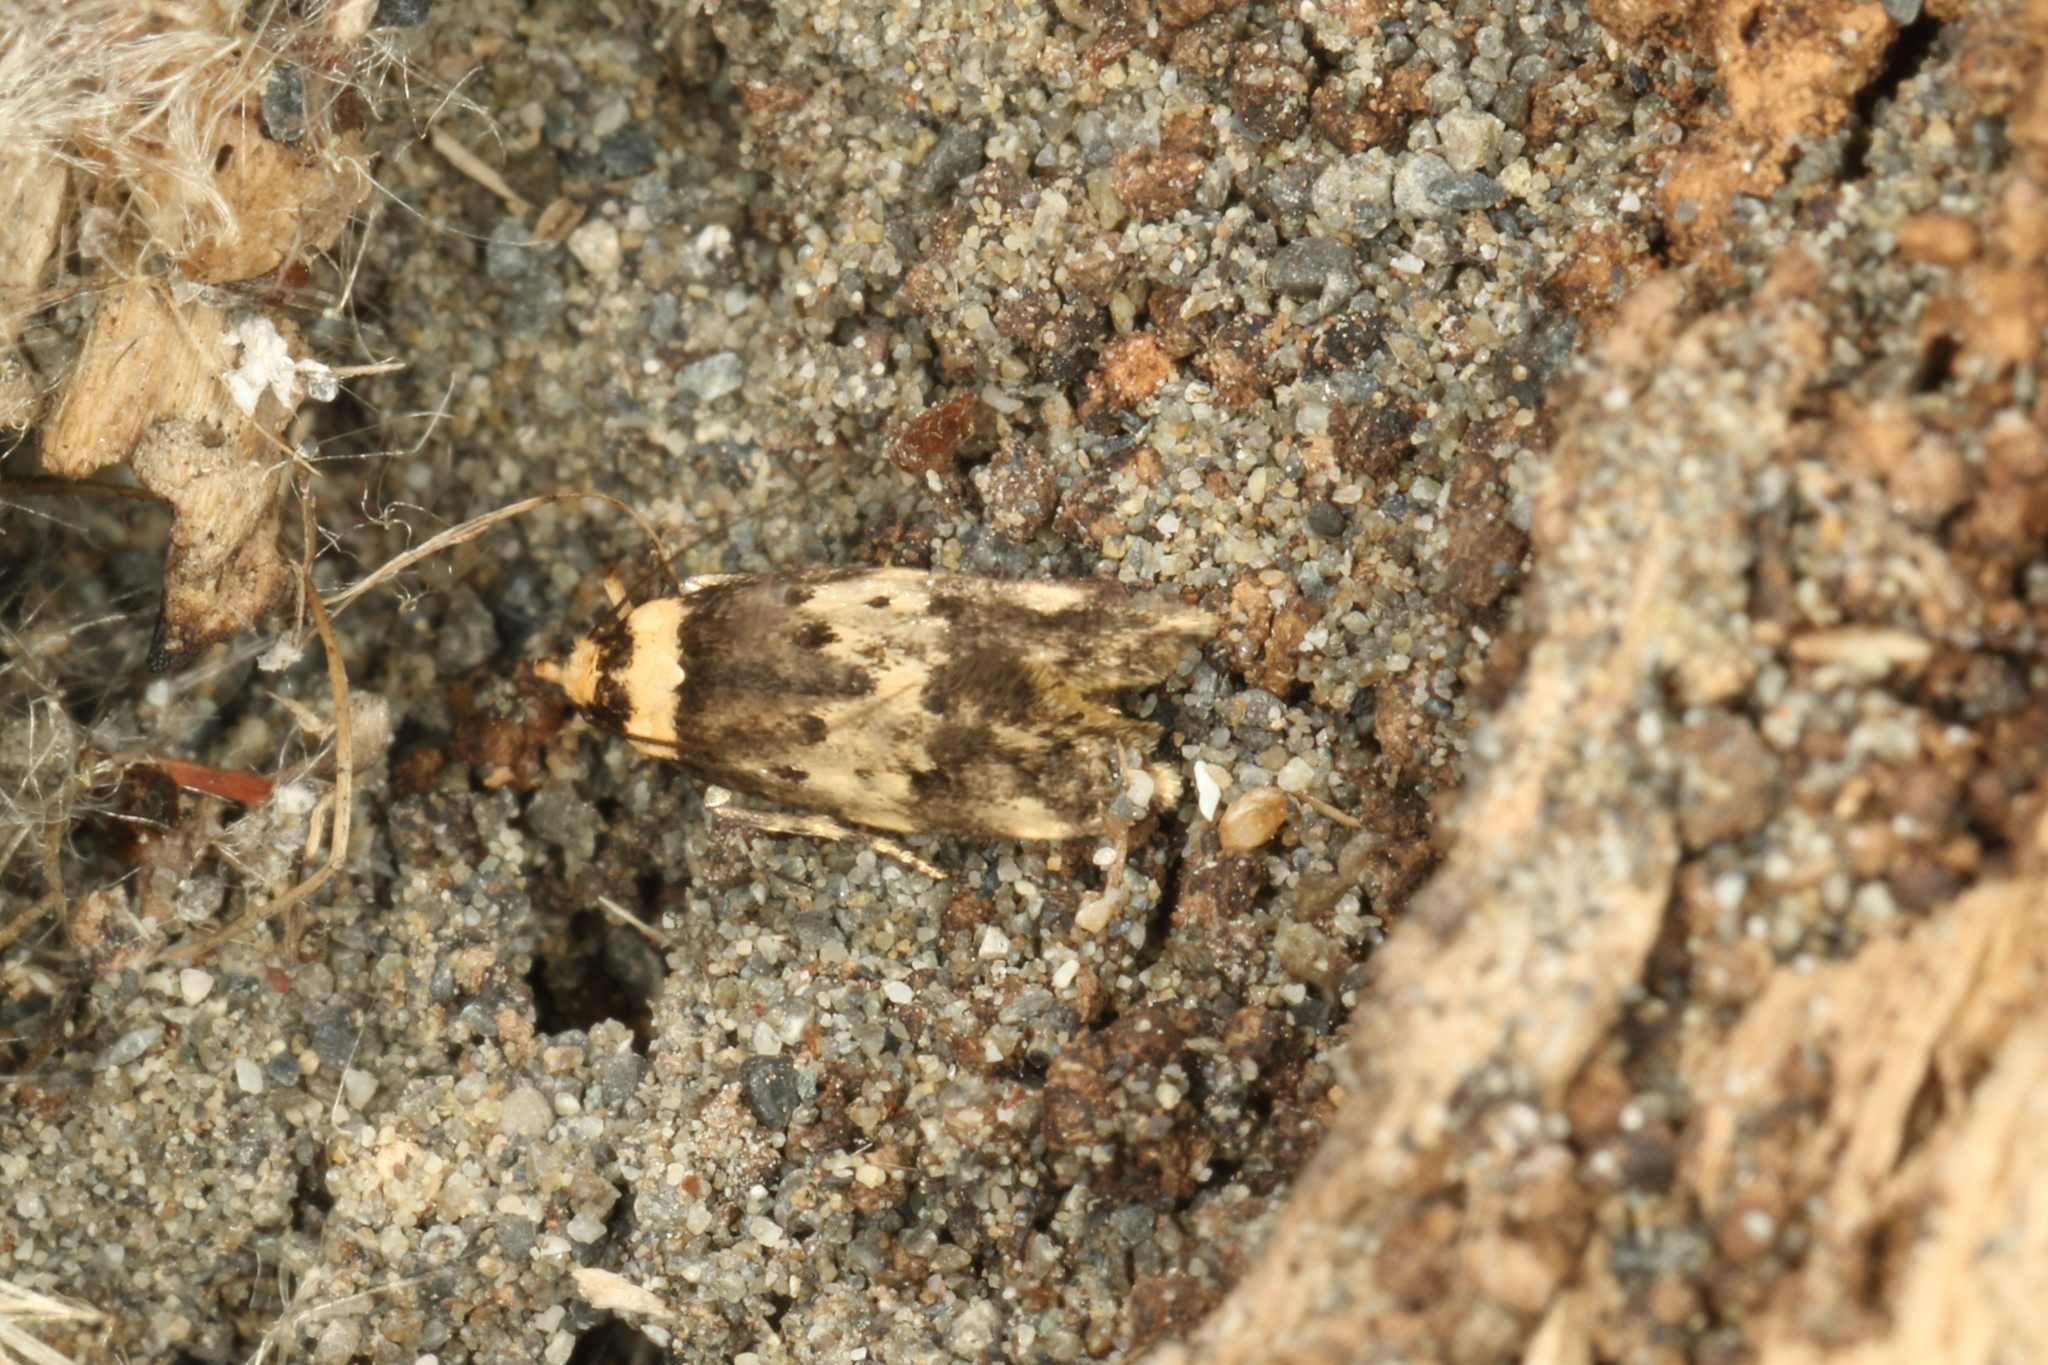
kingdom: Animalia
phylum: Arthropoda
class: Insecta
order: Lepidoptera
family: Oecophoridae
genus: Sphyrelata
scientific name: Sphyrelata amotella
